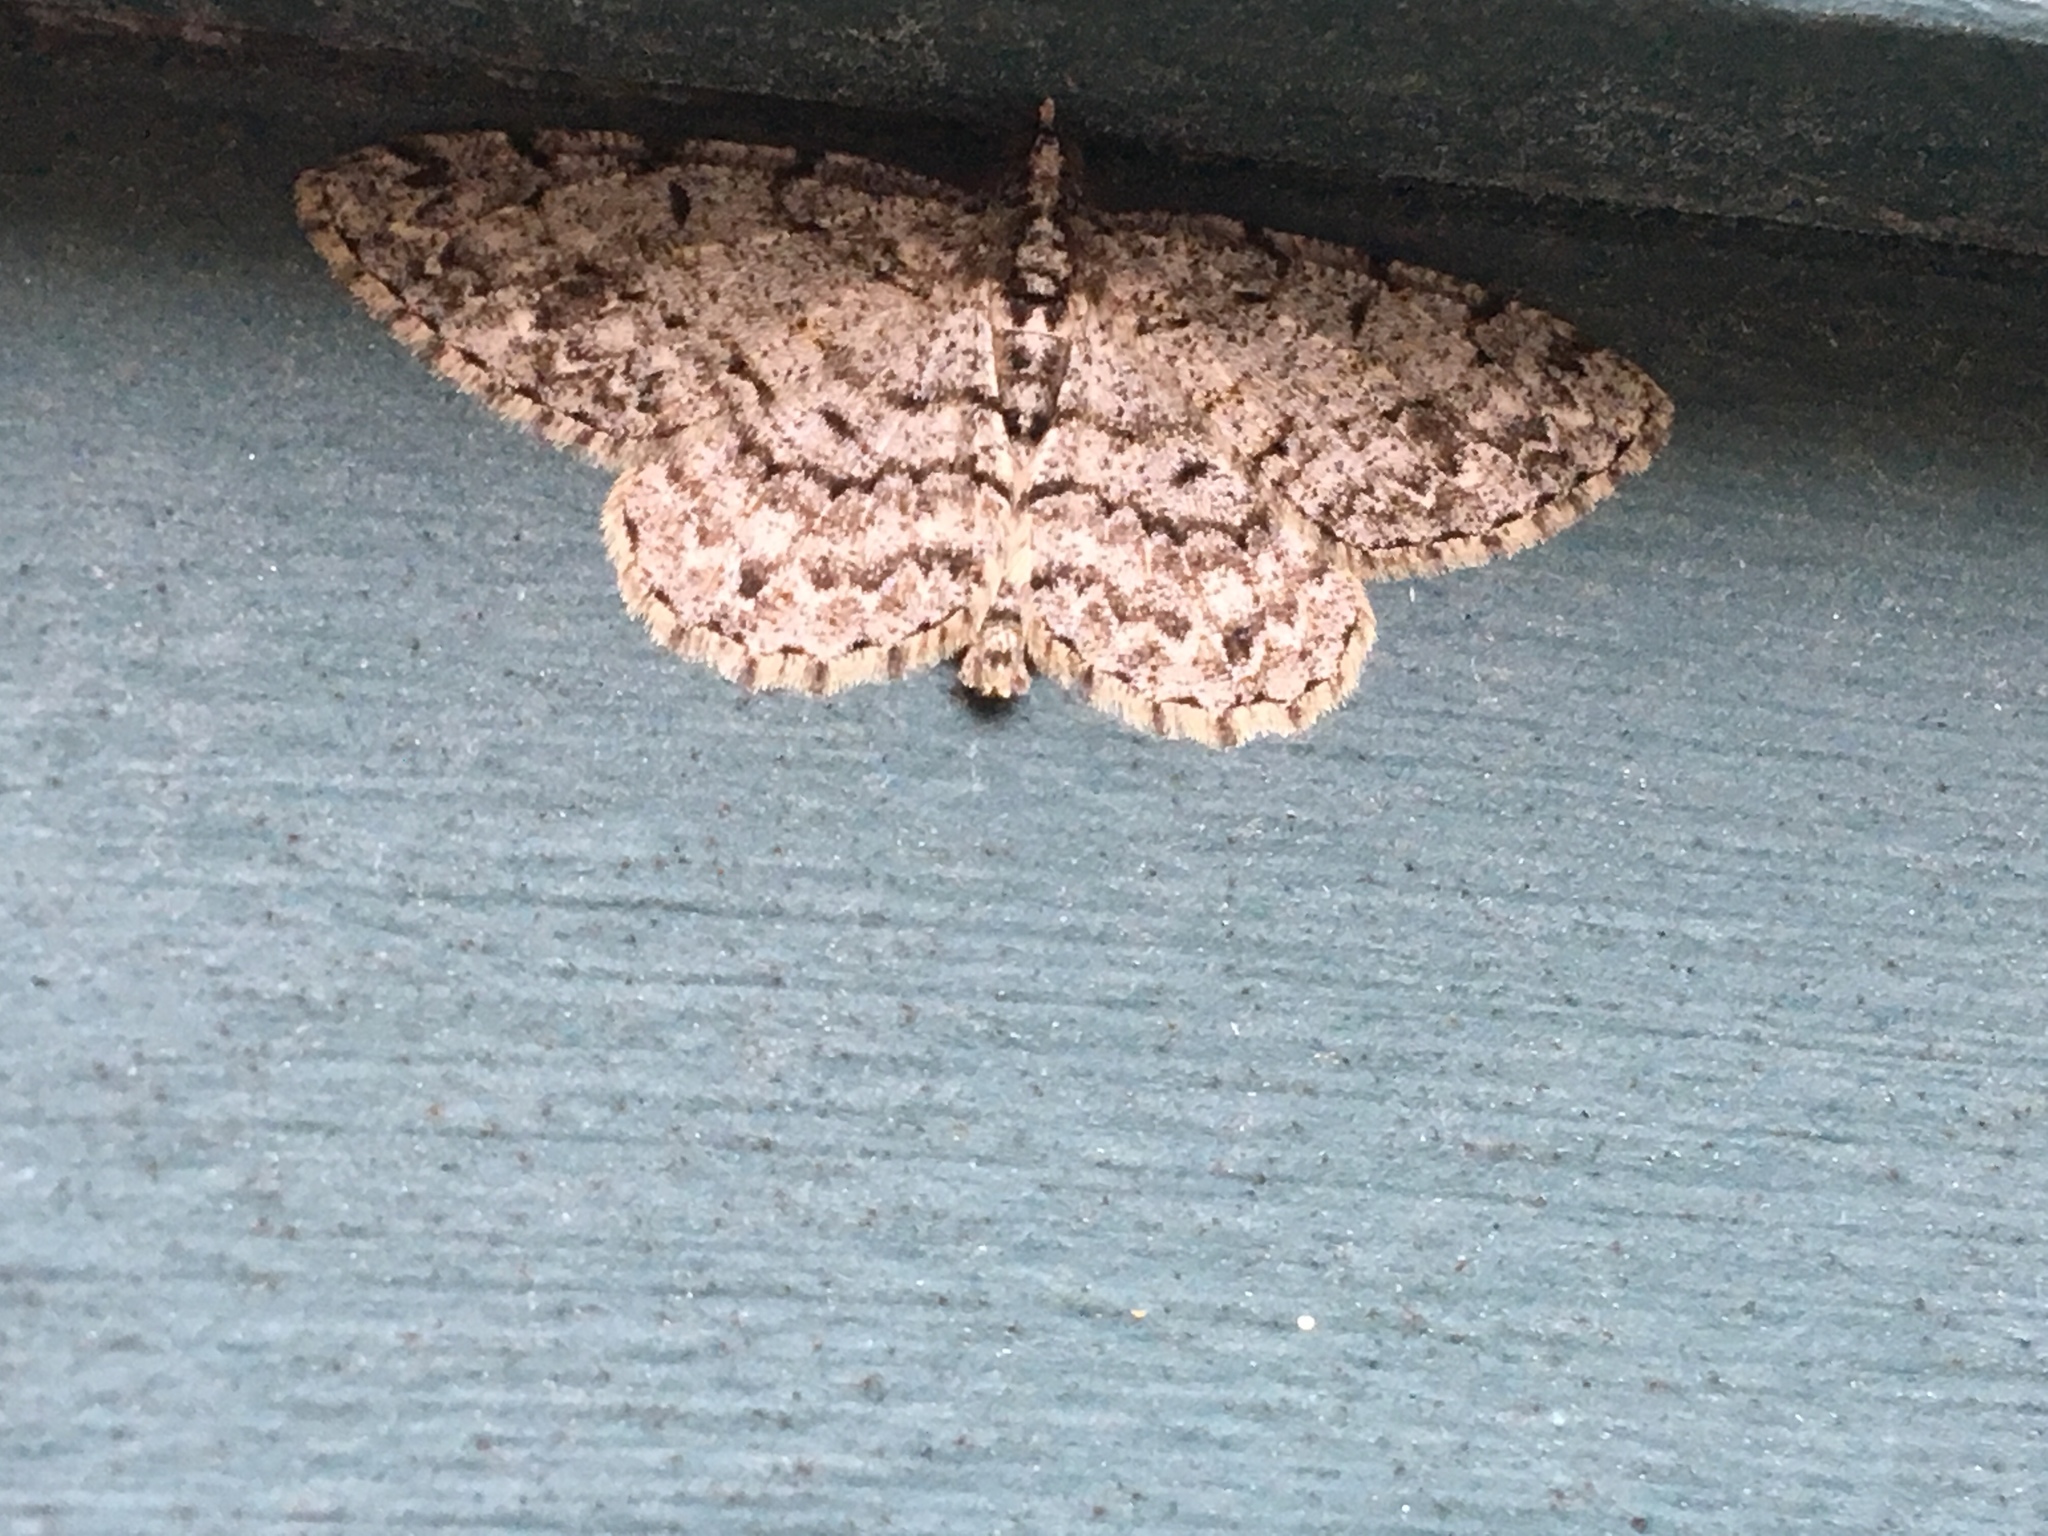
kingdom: Animalia
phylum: Arthropoda
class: Insecta
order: Lepidoptera
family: Geometridae
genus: Protoboarmia
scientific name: Protoboarmia porcelaria
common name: Porcelain gray
